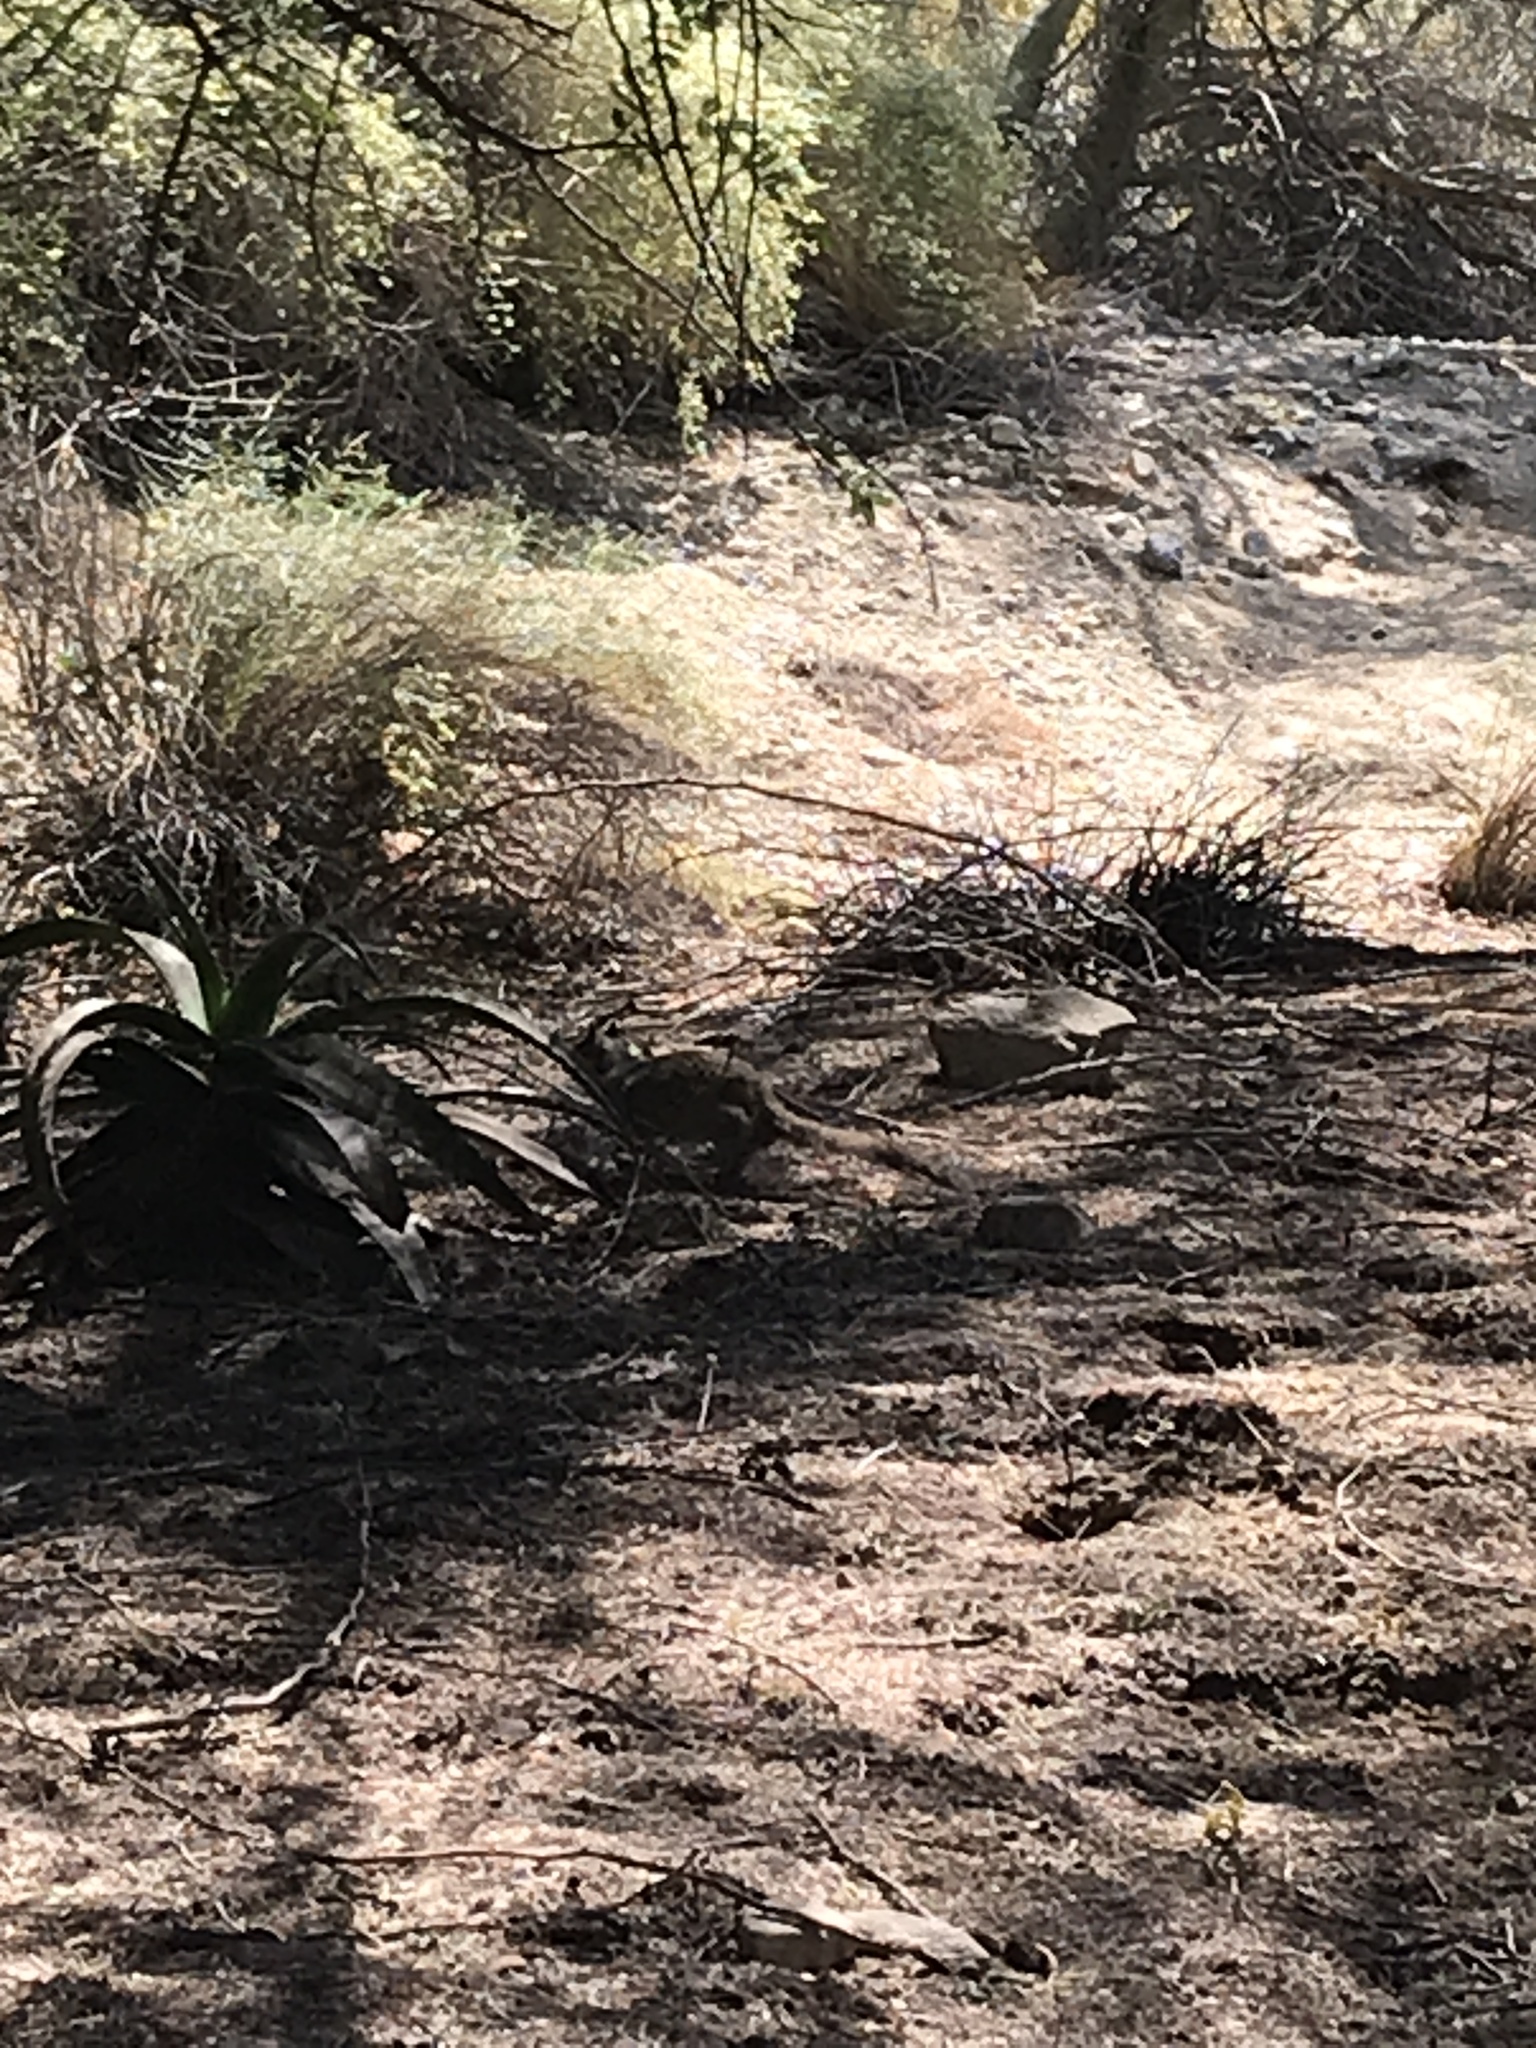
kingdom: Animalia
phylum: Chordata
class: Mammalia
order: Rodentia
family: Sciuridae
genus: Otospermophilus
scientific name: Otospermophilus beecheyi
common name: California ground squirrel
